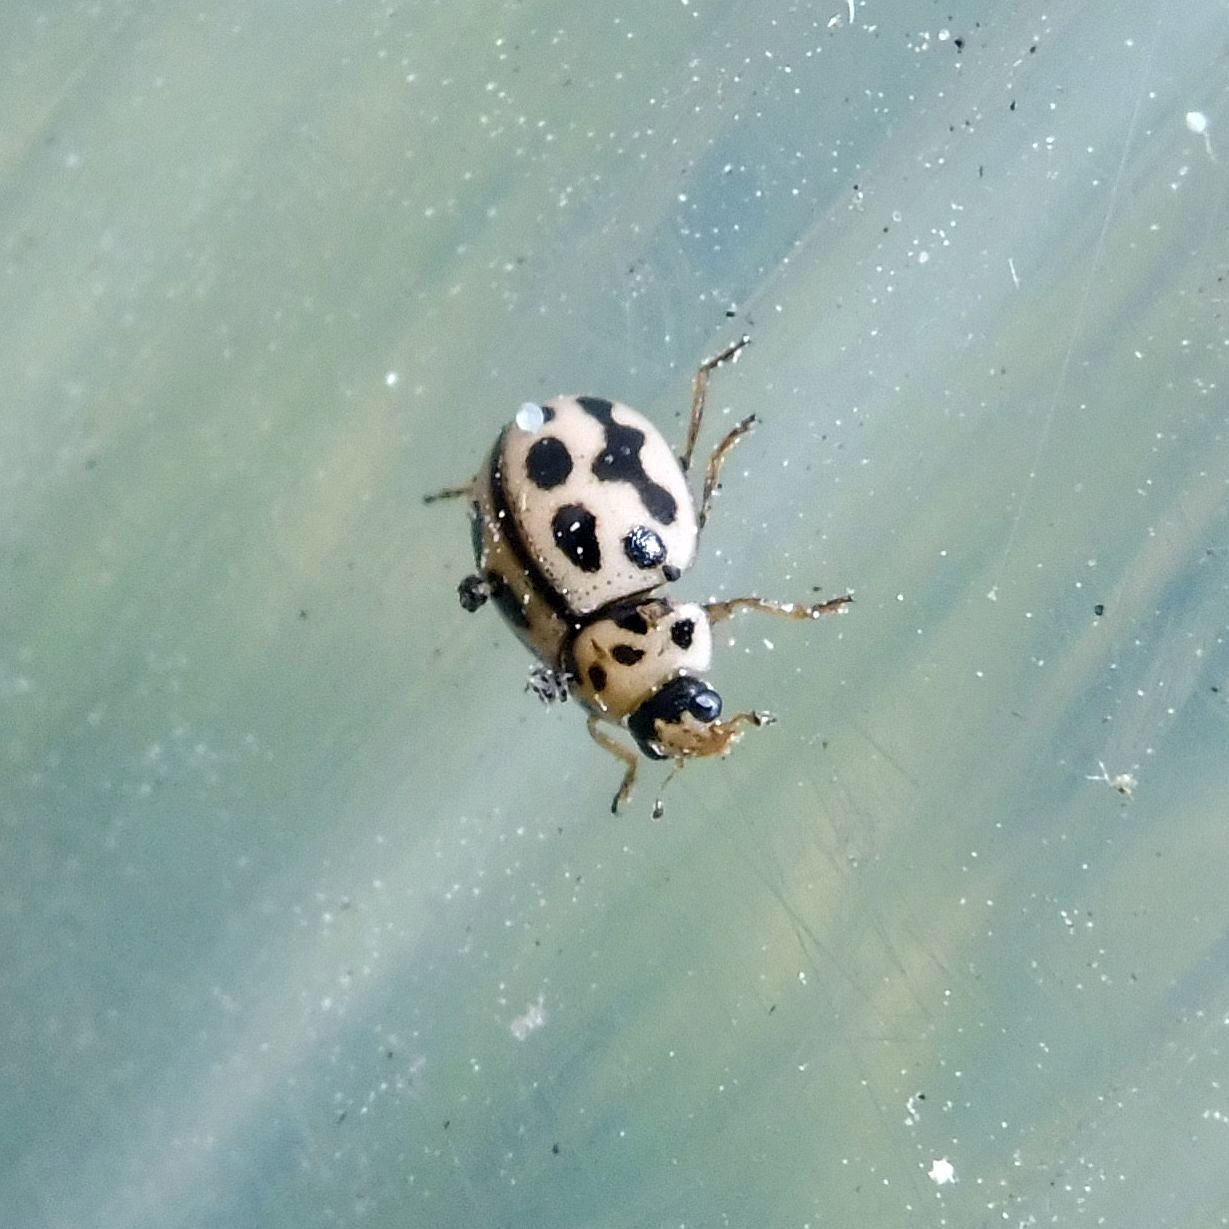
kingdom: Animalia
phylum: Arthropoda
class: Insecta
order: Coleoptera
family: Coccinellidae
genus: Tytthaspis
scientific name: Tytthaspis sedecimpunctata
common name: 16-spot ladybird
